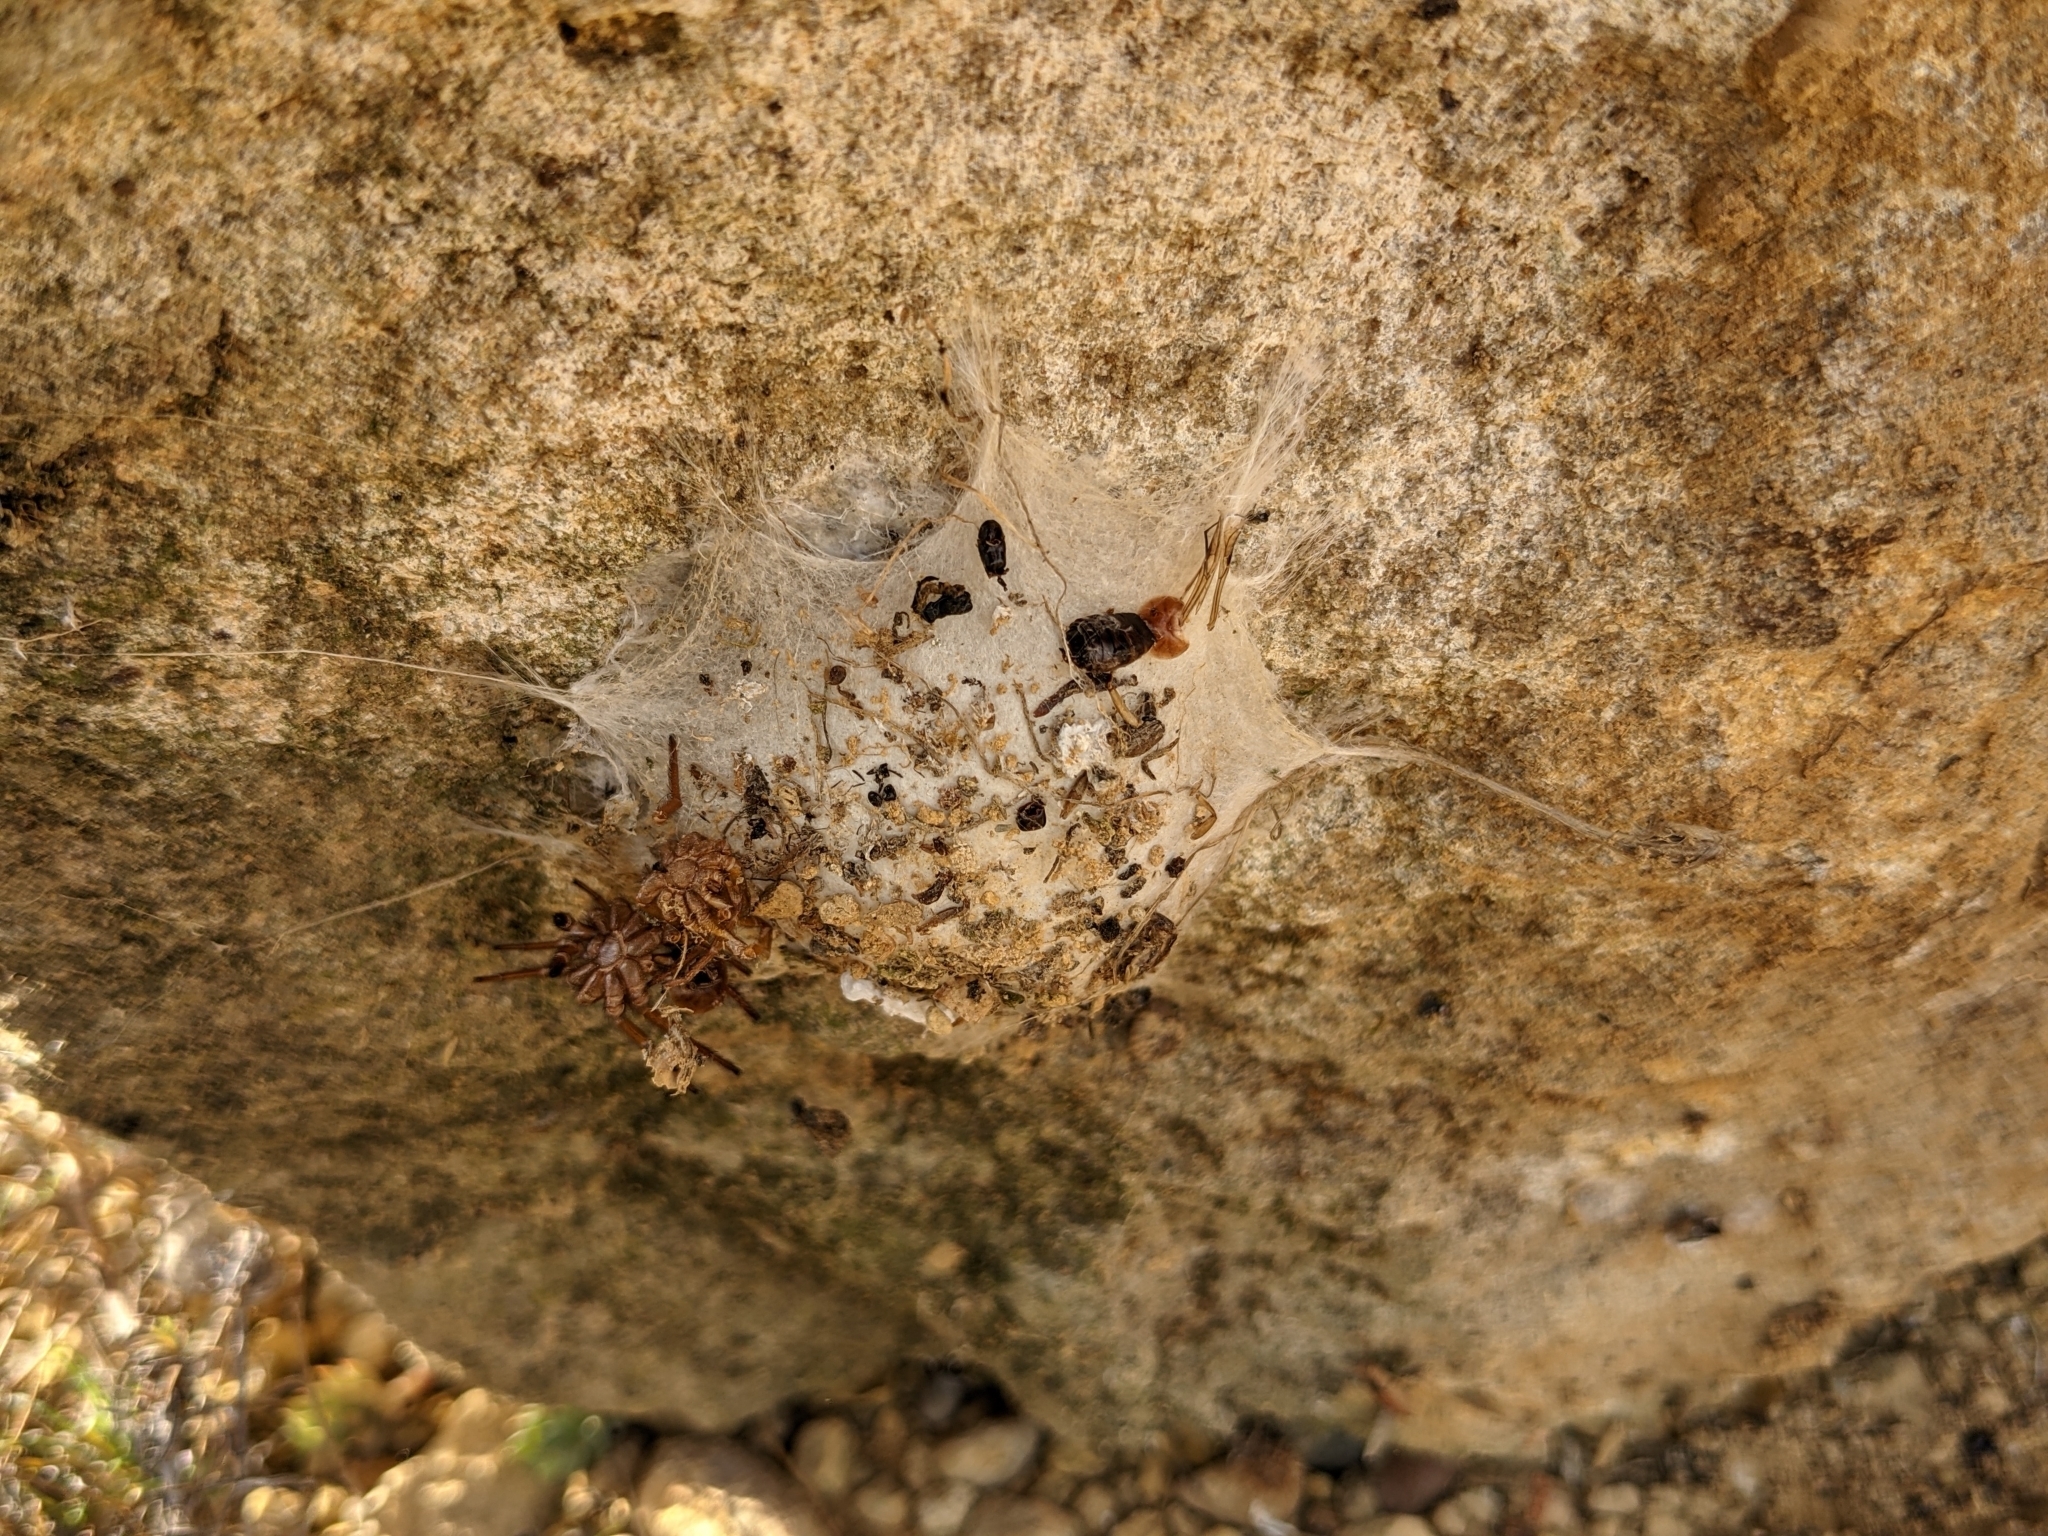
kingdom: Animalia
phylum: Arthropoda
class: Arachnida
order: Araneae
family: Oecobiidae
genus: Uroctea
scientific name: Uroctea durandi
